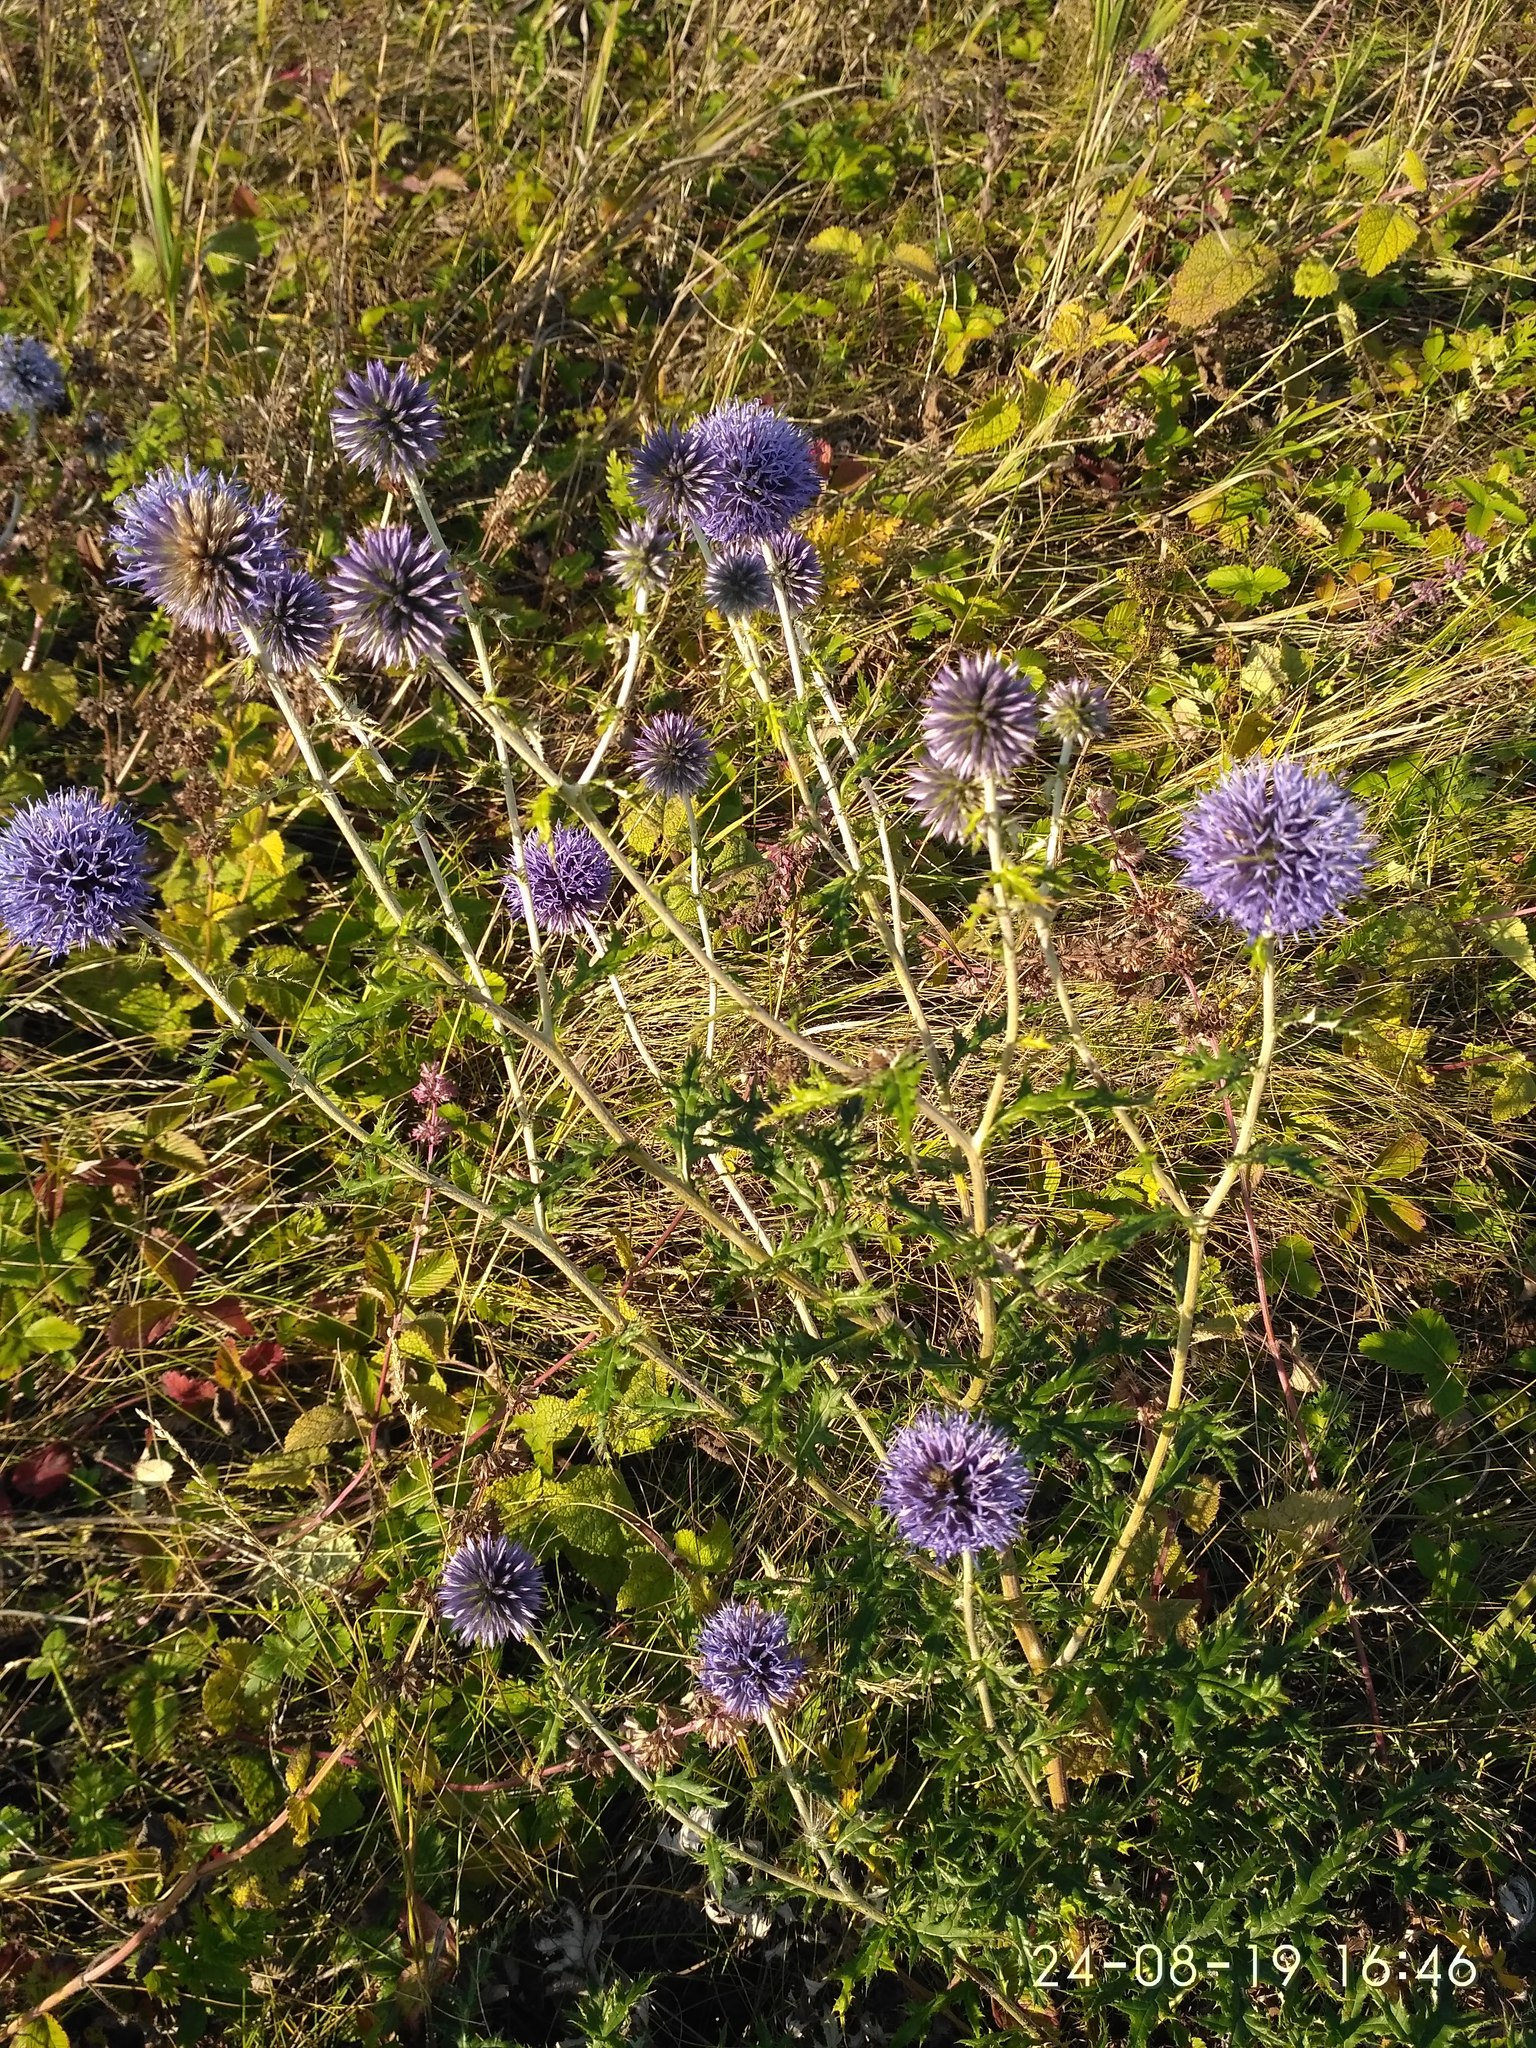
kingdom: Plantae
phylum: Tracheophyta
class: Magnoliopsida
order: Asterales
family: Asteraceae
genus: Echinops
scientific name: Echinops ritro
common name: Globe thistle
